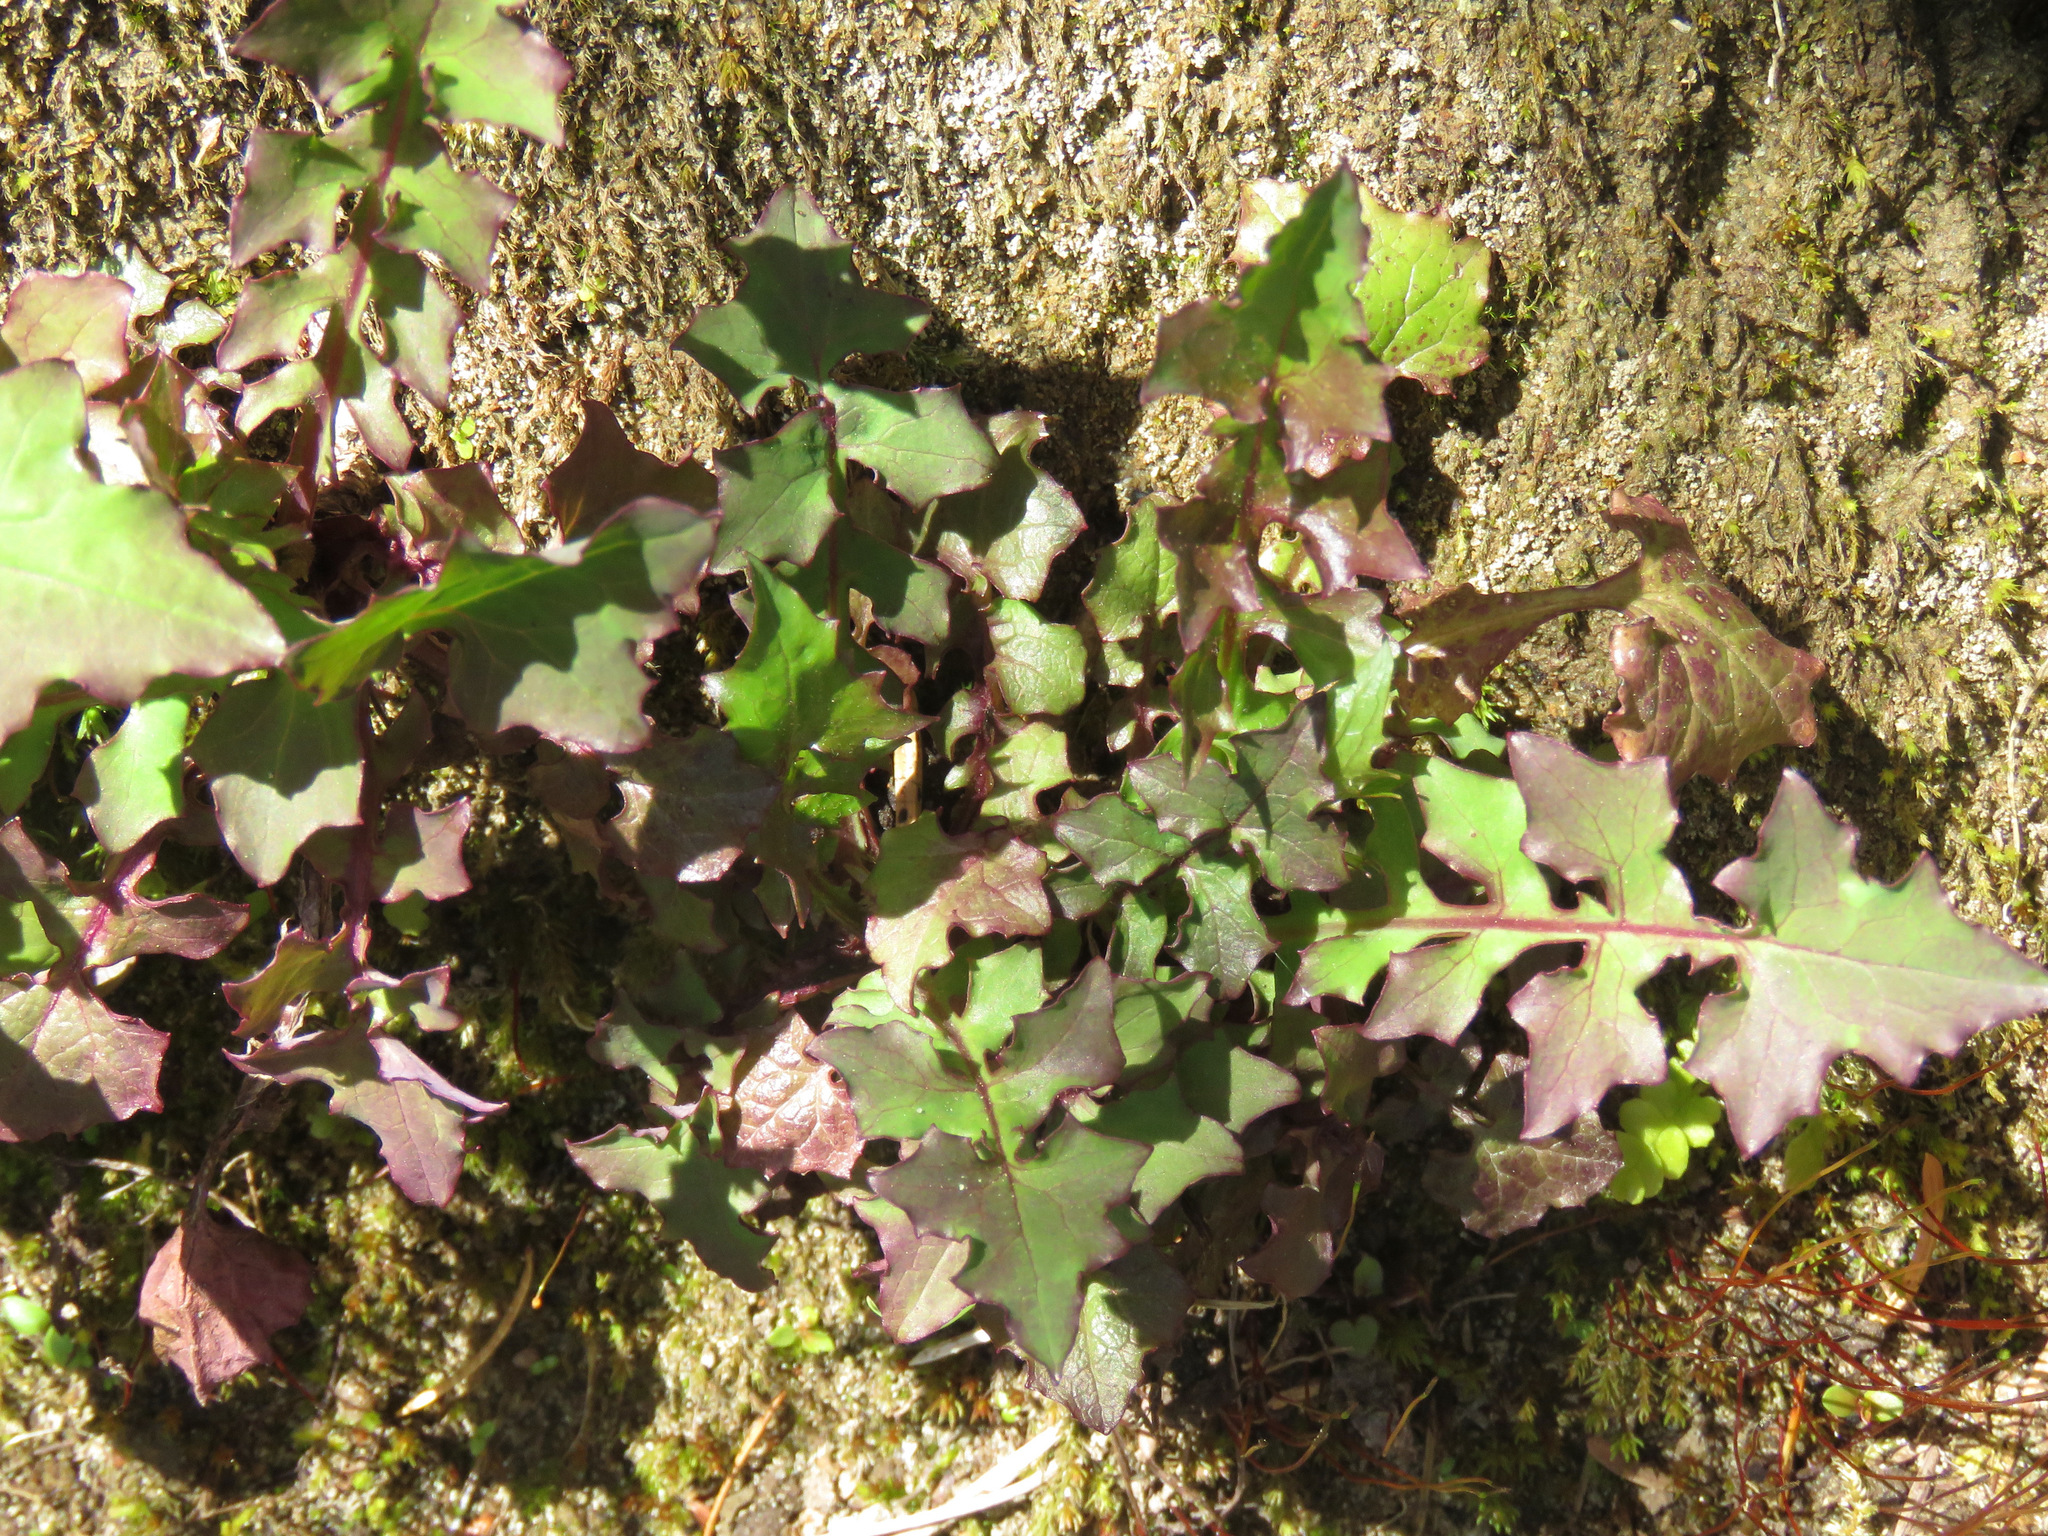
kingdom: Plantae
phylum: Tracheophyta
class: Magnoliopsida
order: Asterales
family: Asteraceae
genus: Mycelis
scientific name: Mycelis muralis
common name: Wall lettuce
